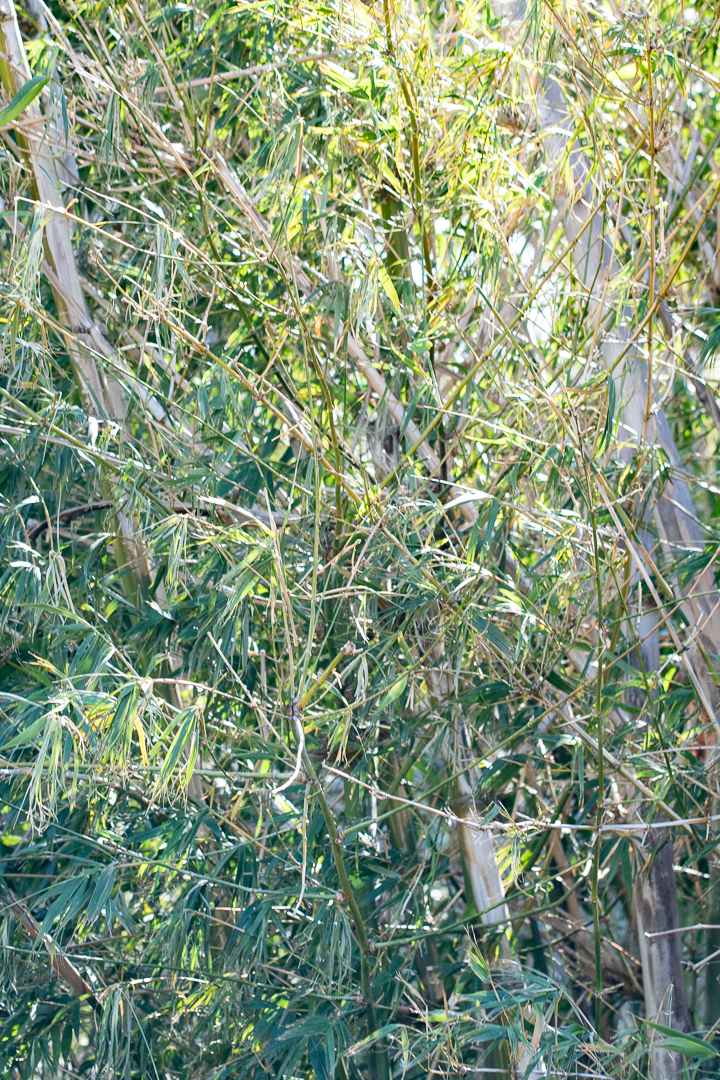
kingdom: Plantae
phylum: Tracheophyta
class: Liliopsida
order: Poales
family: Poaceae
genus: Bambusa
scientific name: Bambusa oldhamii
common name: Giant timber bamboo
